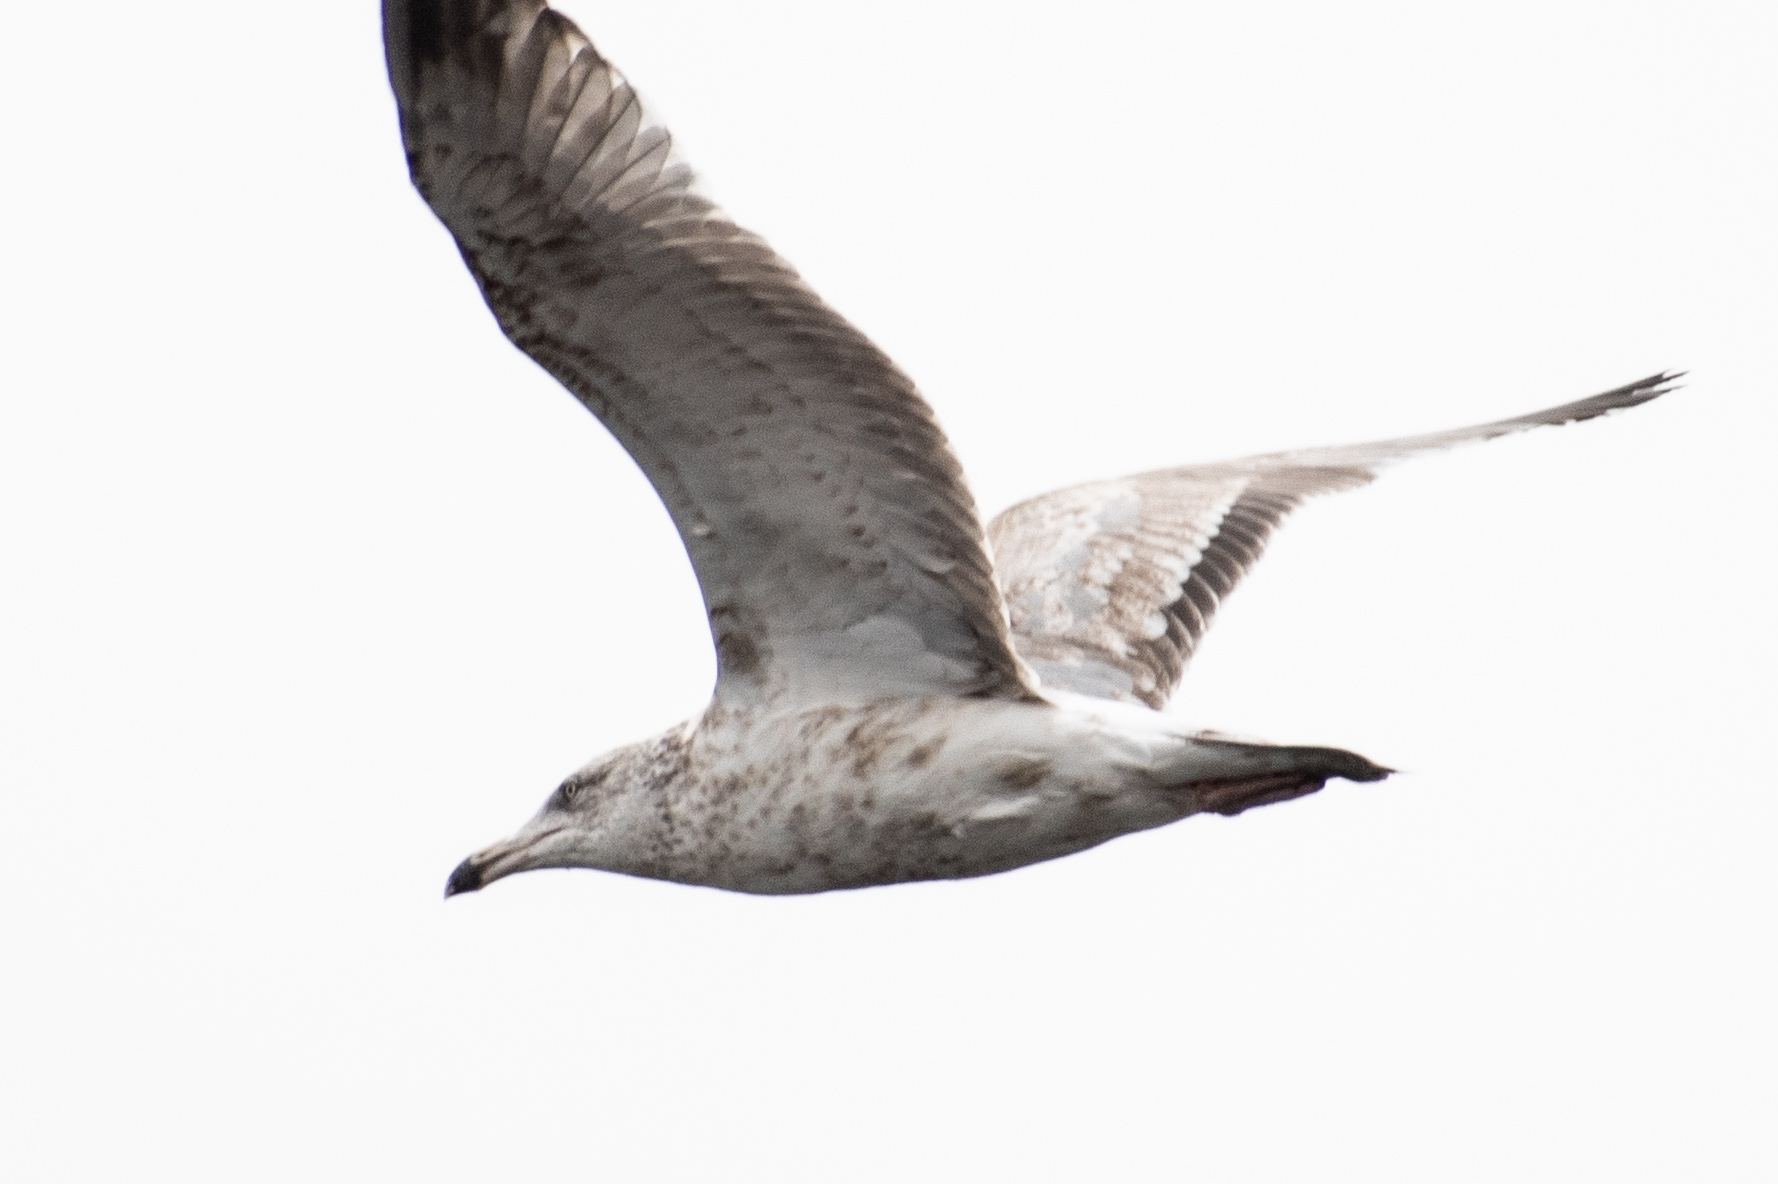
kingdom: Animalia
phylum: Chordata
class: Aves
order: Charadriiformes
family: Laridae
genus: Larus
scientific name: Larus argentatus
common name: Herring gull
